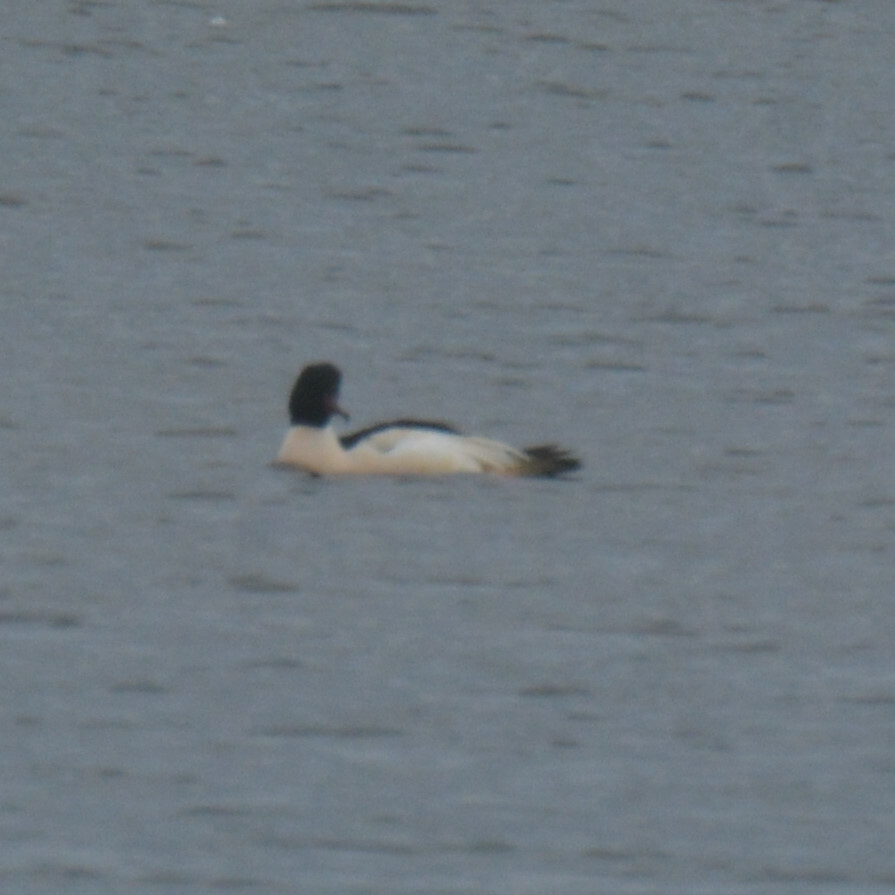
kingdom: Animalia
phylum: Chordata
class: Aves
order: Anseriformes
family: Anatidae
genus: Mergus
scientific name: Mergus merganser
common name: Common merganser
